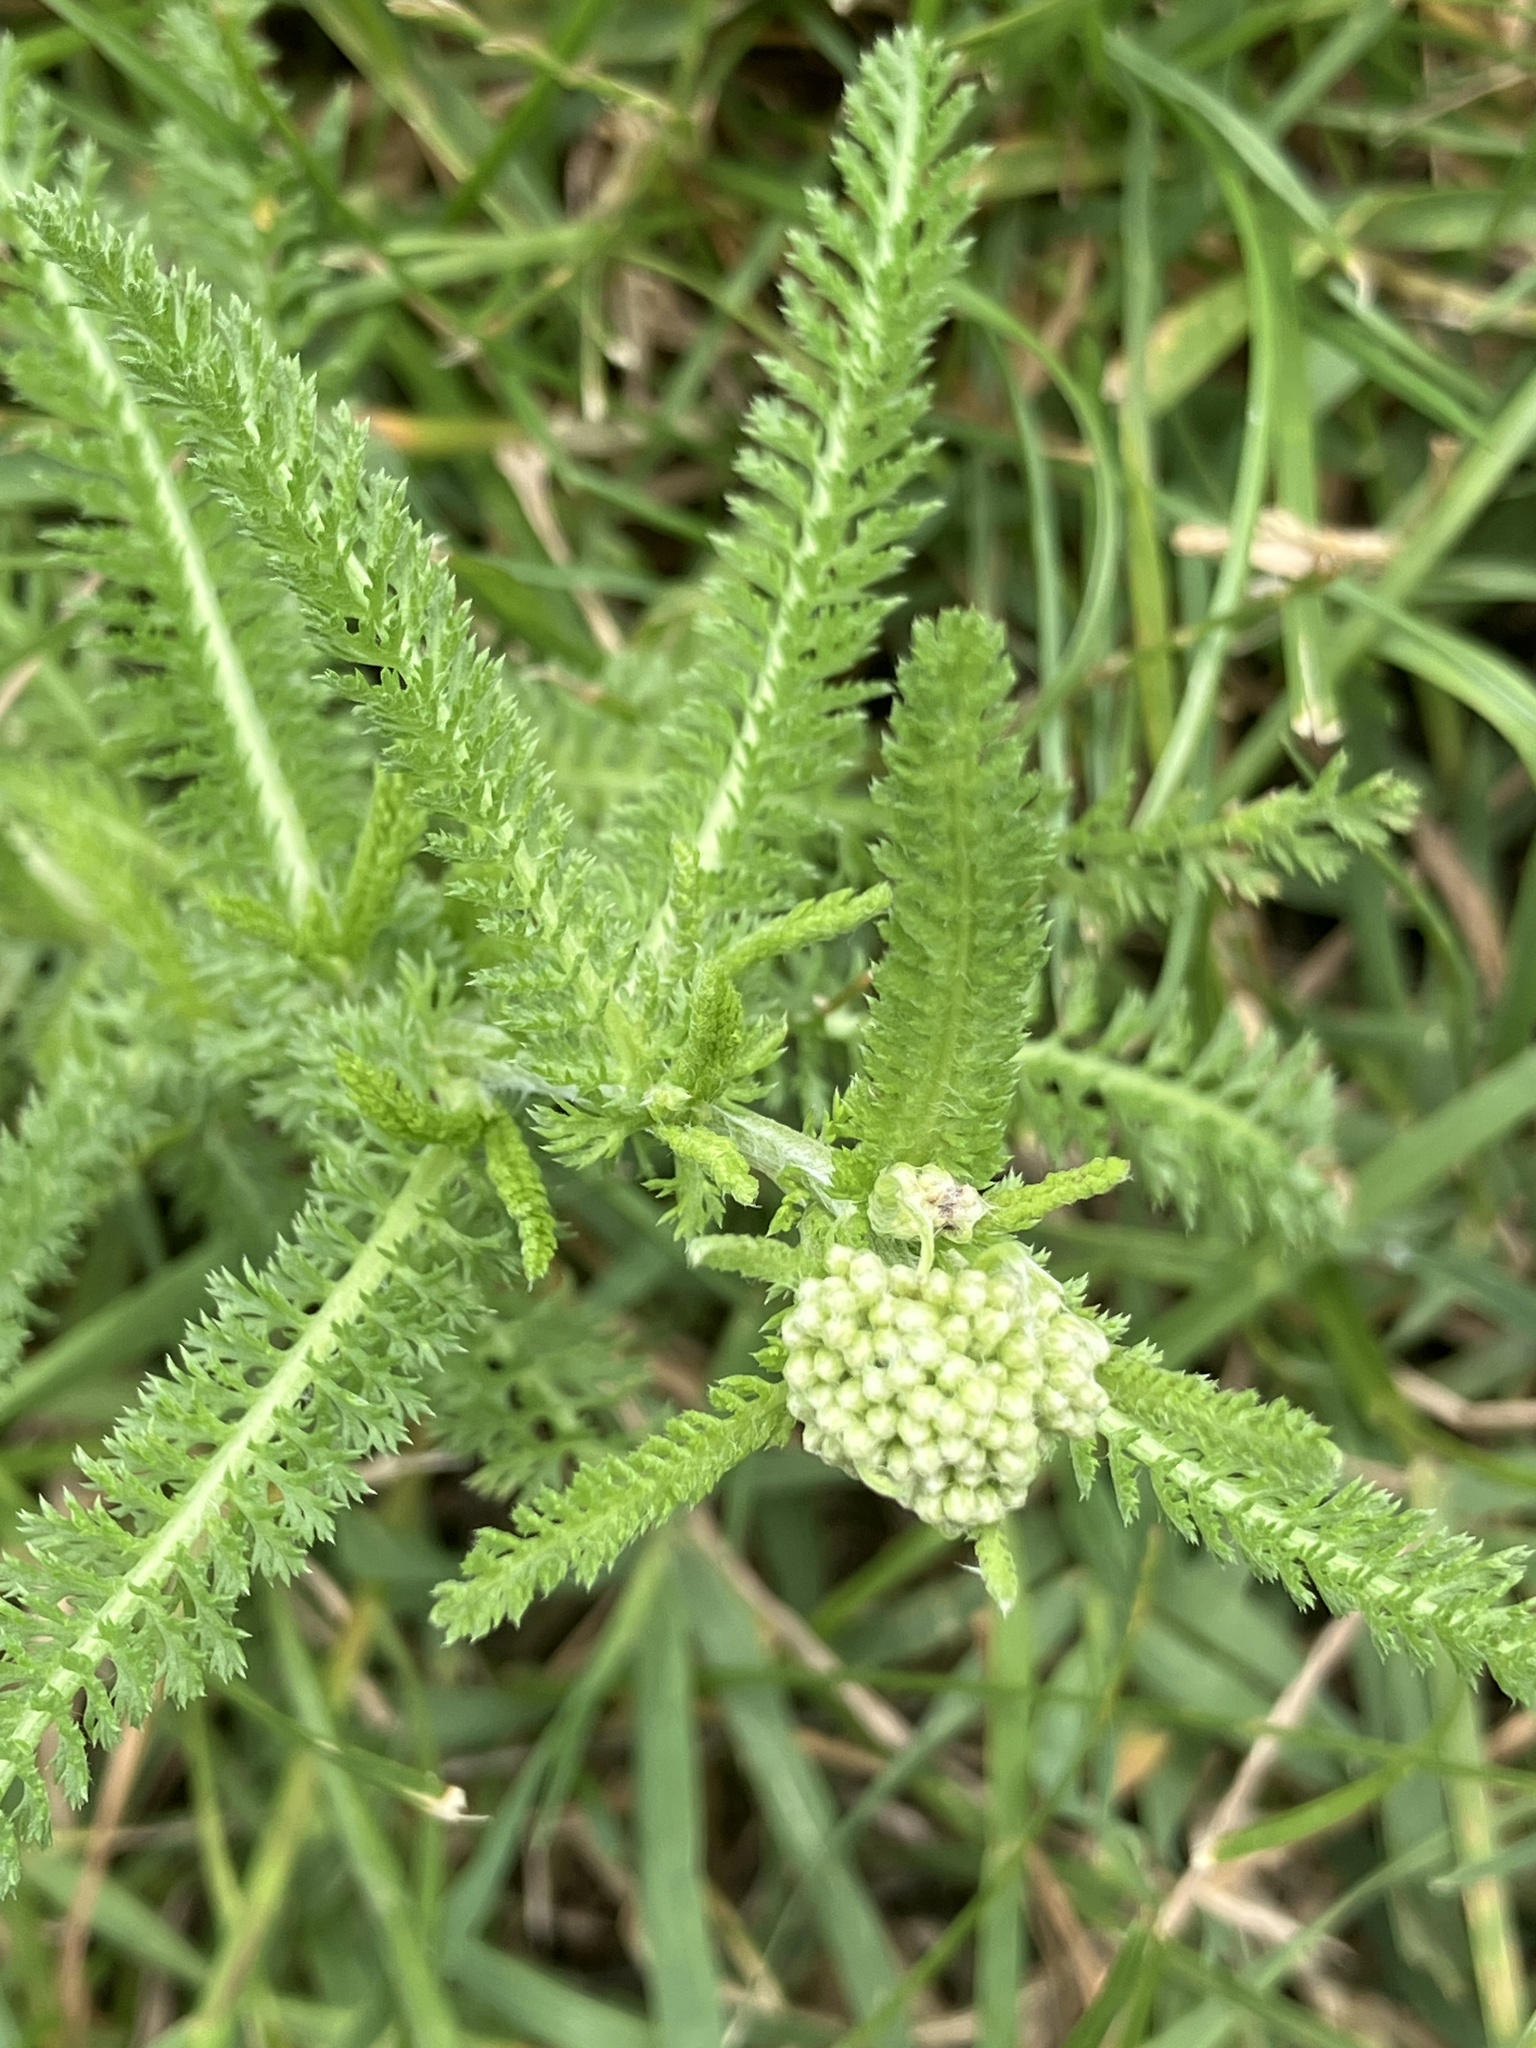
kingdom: Plantae
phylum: Tracheophyta
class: Magnoliopsida
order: Asterales
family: Asteraceae
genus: Achillea
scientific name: Achillea collina
